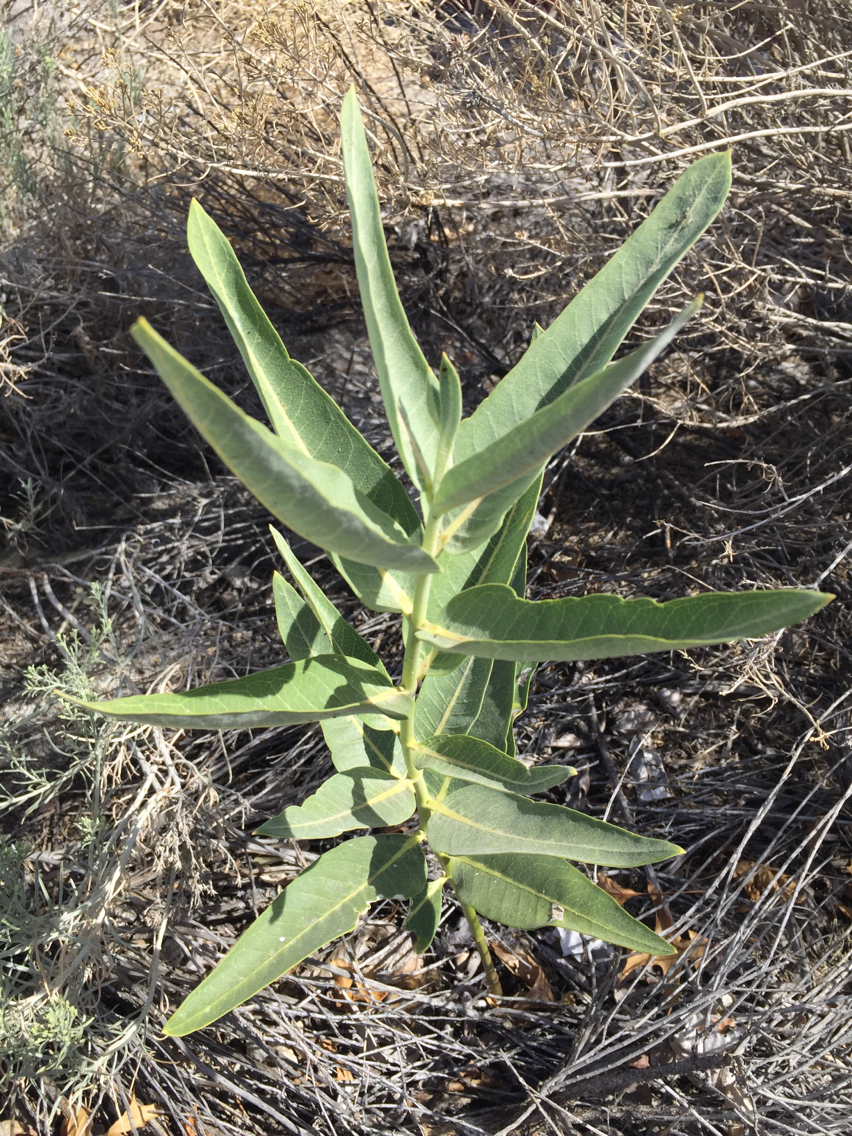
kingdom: Plantae
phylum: Tracheophyta
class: Magnoliopsida
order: Gentianales
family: Apocynaceae
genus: Asclepias
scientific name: Asclepias speciosa
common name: Showy milkweed
